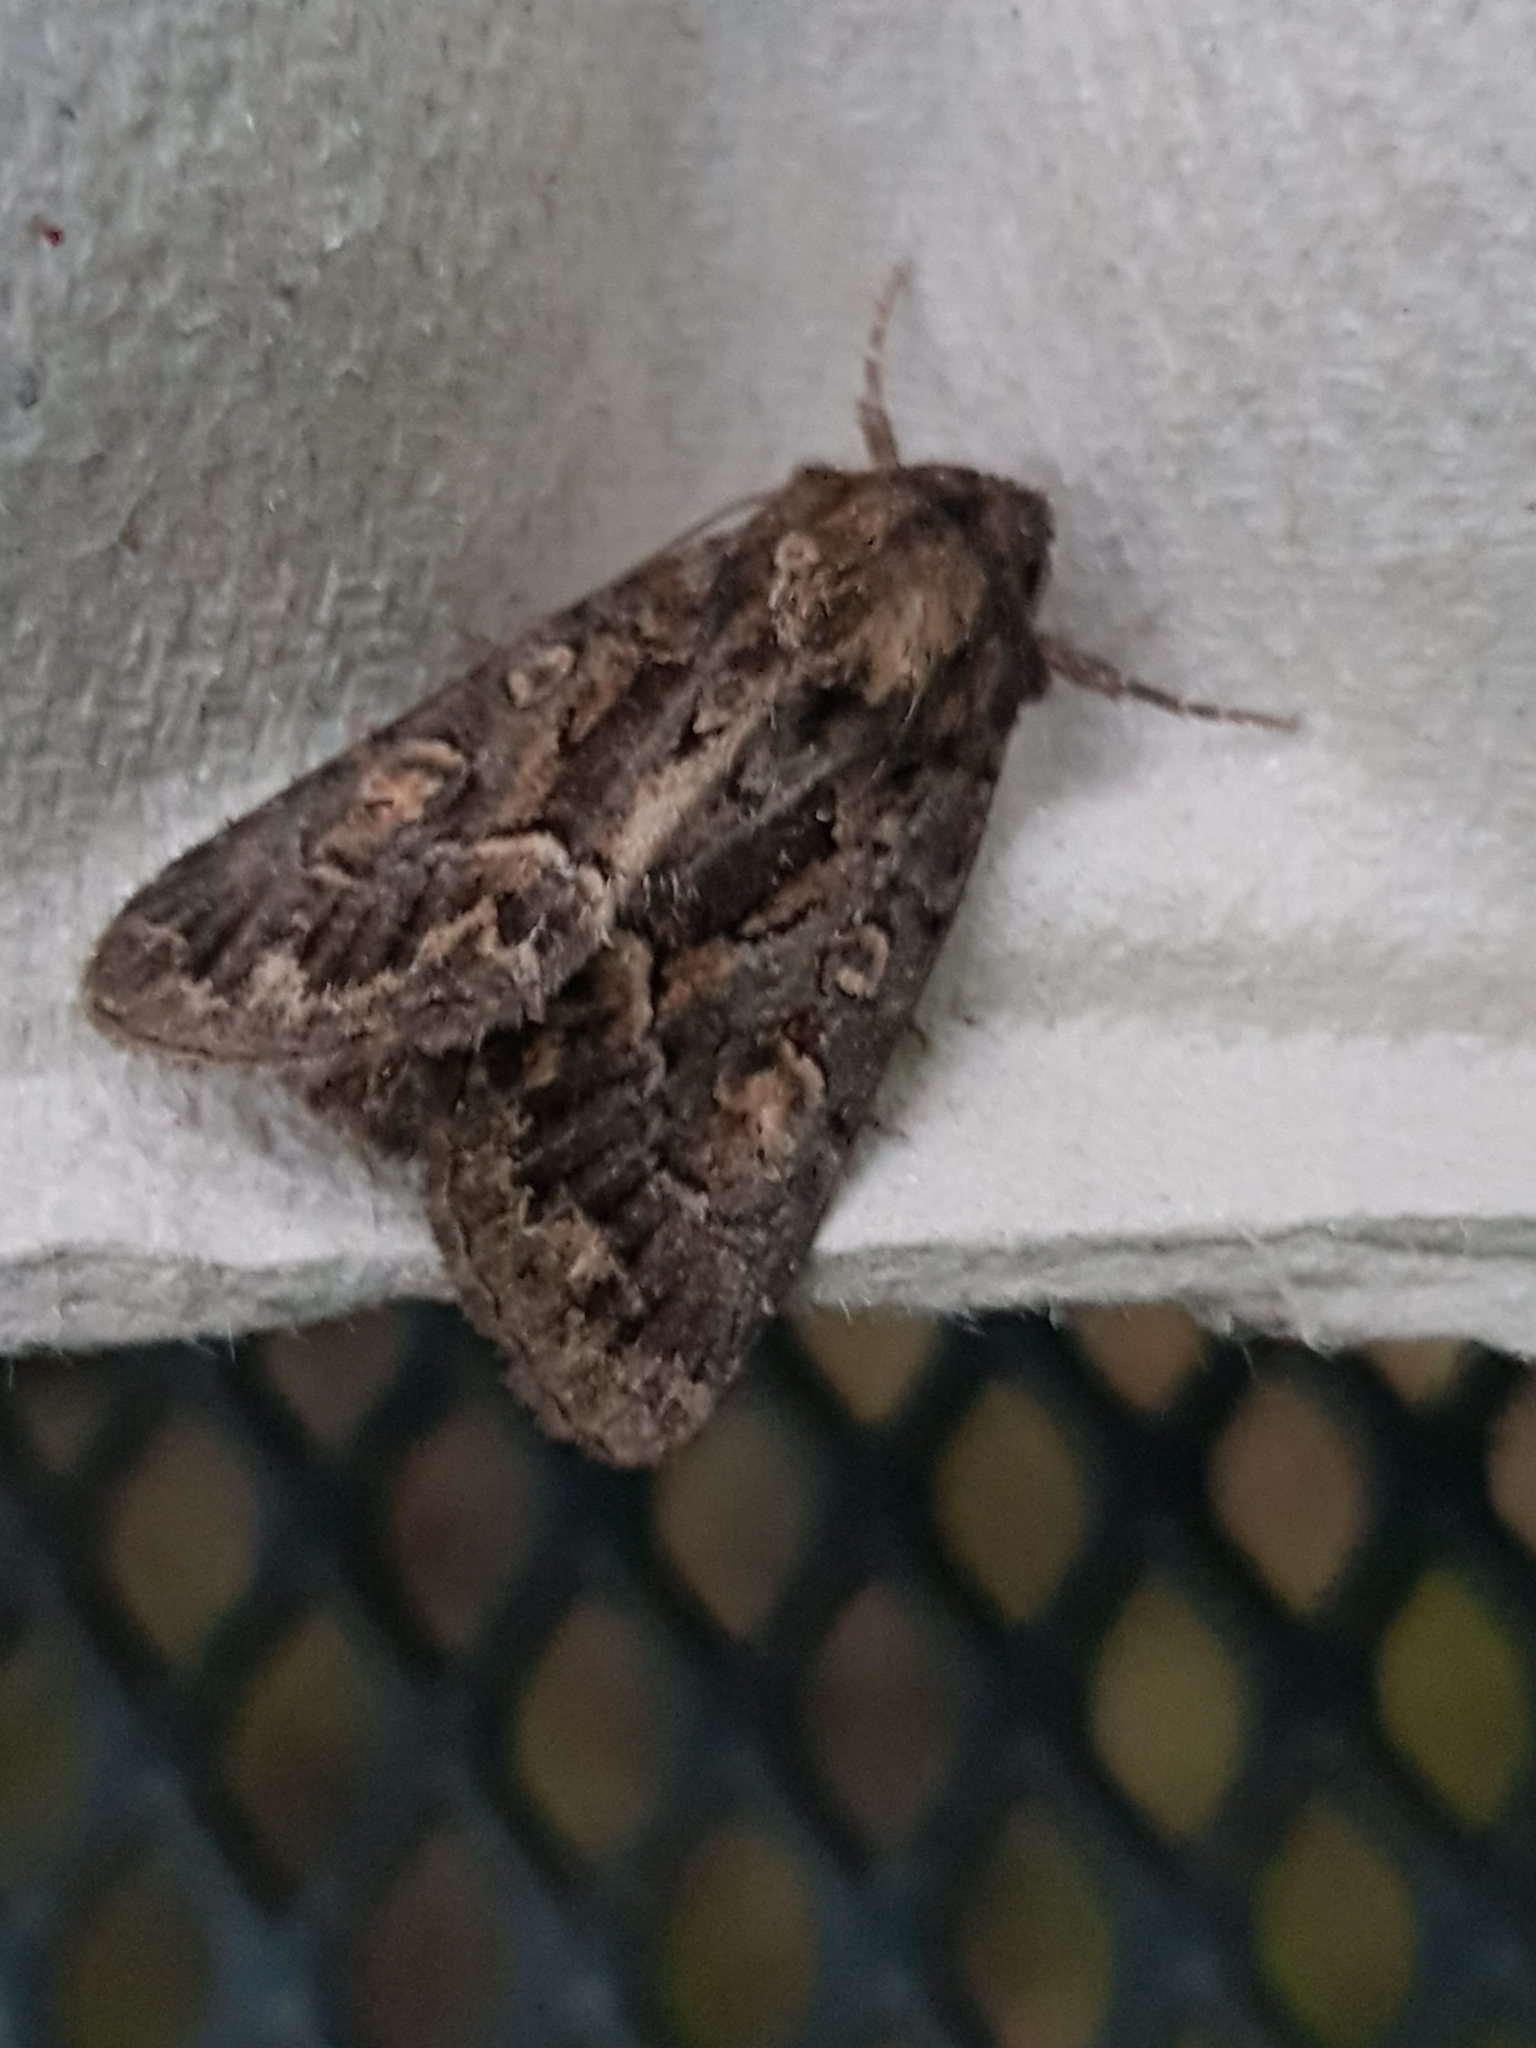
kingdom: Animalia
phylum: Arthropoda
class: Insecta
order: Lepidoptera
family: Noctuidae
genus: Thalpophila
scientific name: Thalpophila matura
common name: Straw underwing
